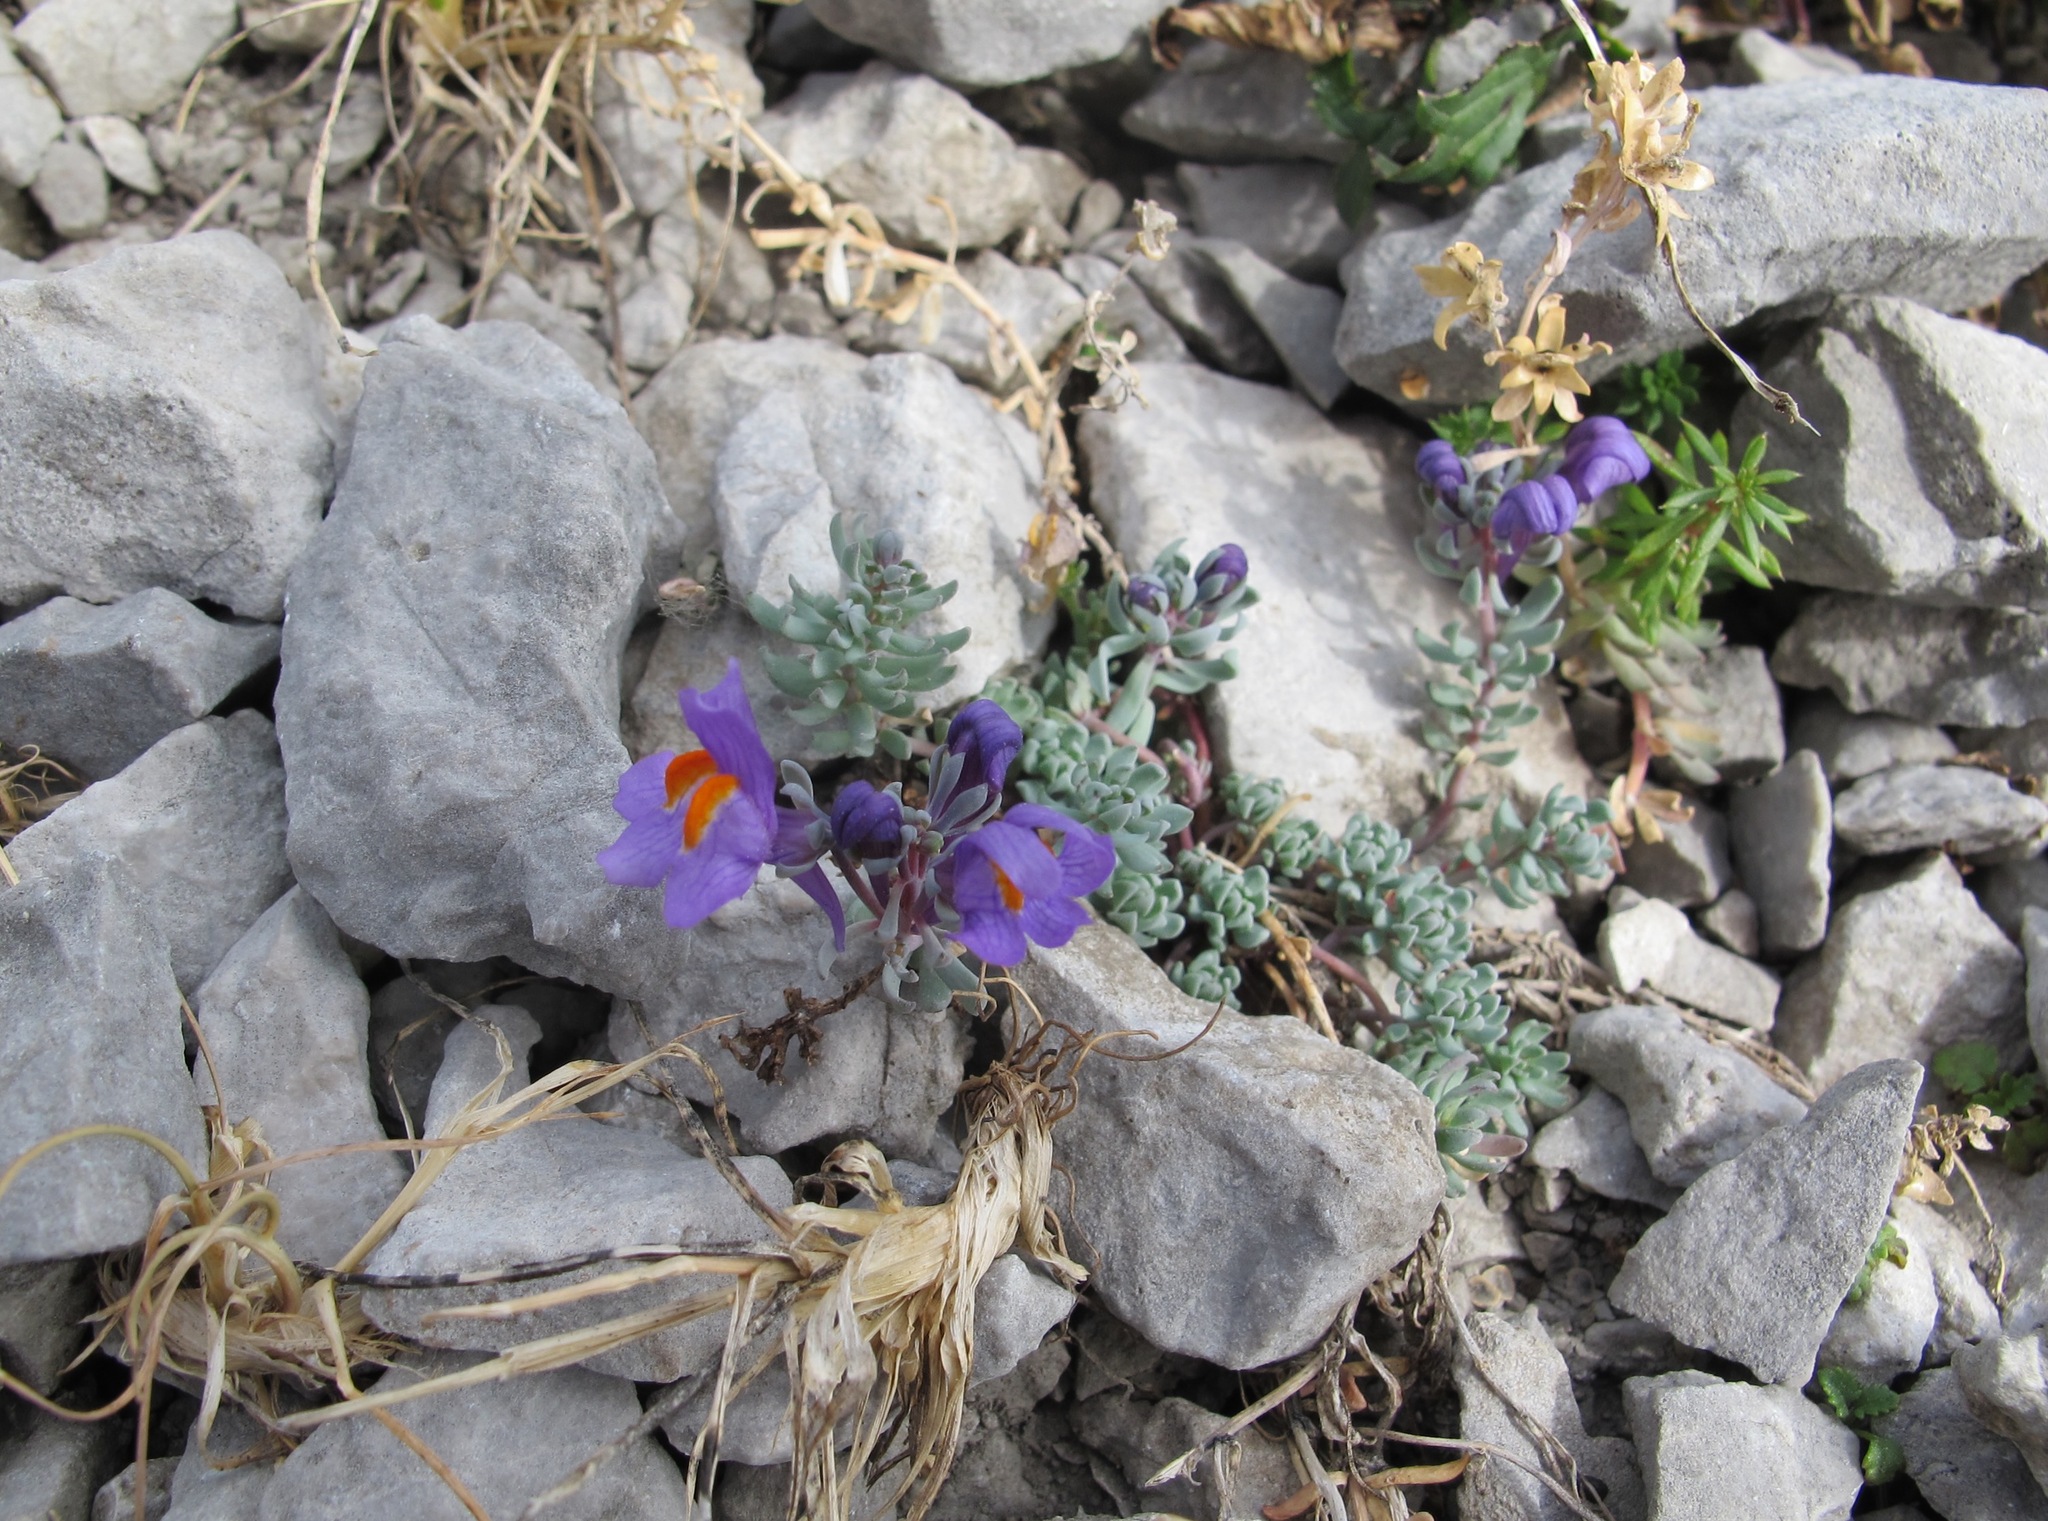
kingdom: Plantae
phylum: Tracheophyta
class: Magnoliopsida
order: Lamiales
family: Plantaginaceae
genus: Linaria
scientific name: Linaria alpina
